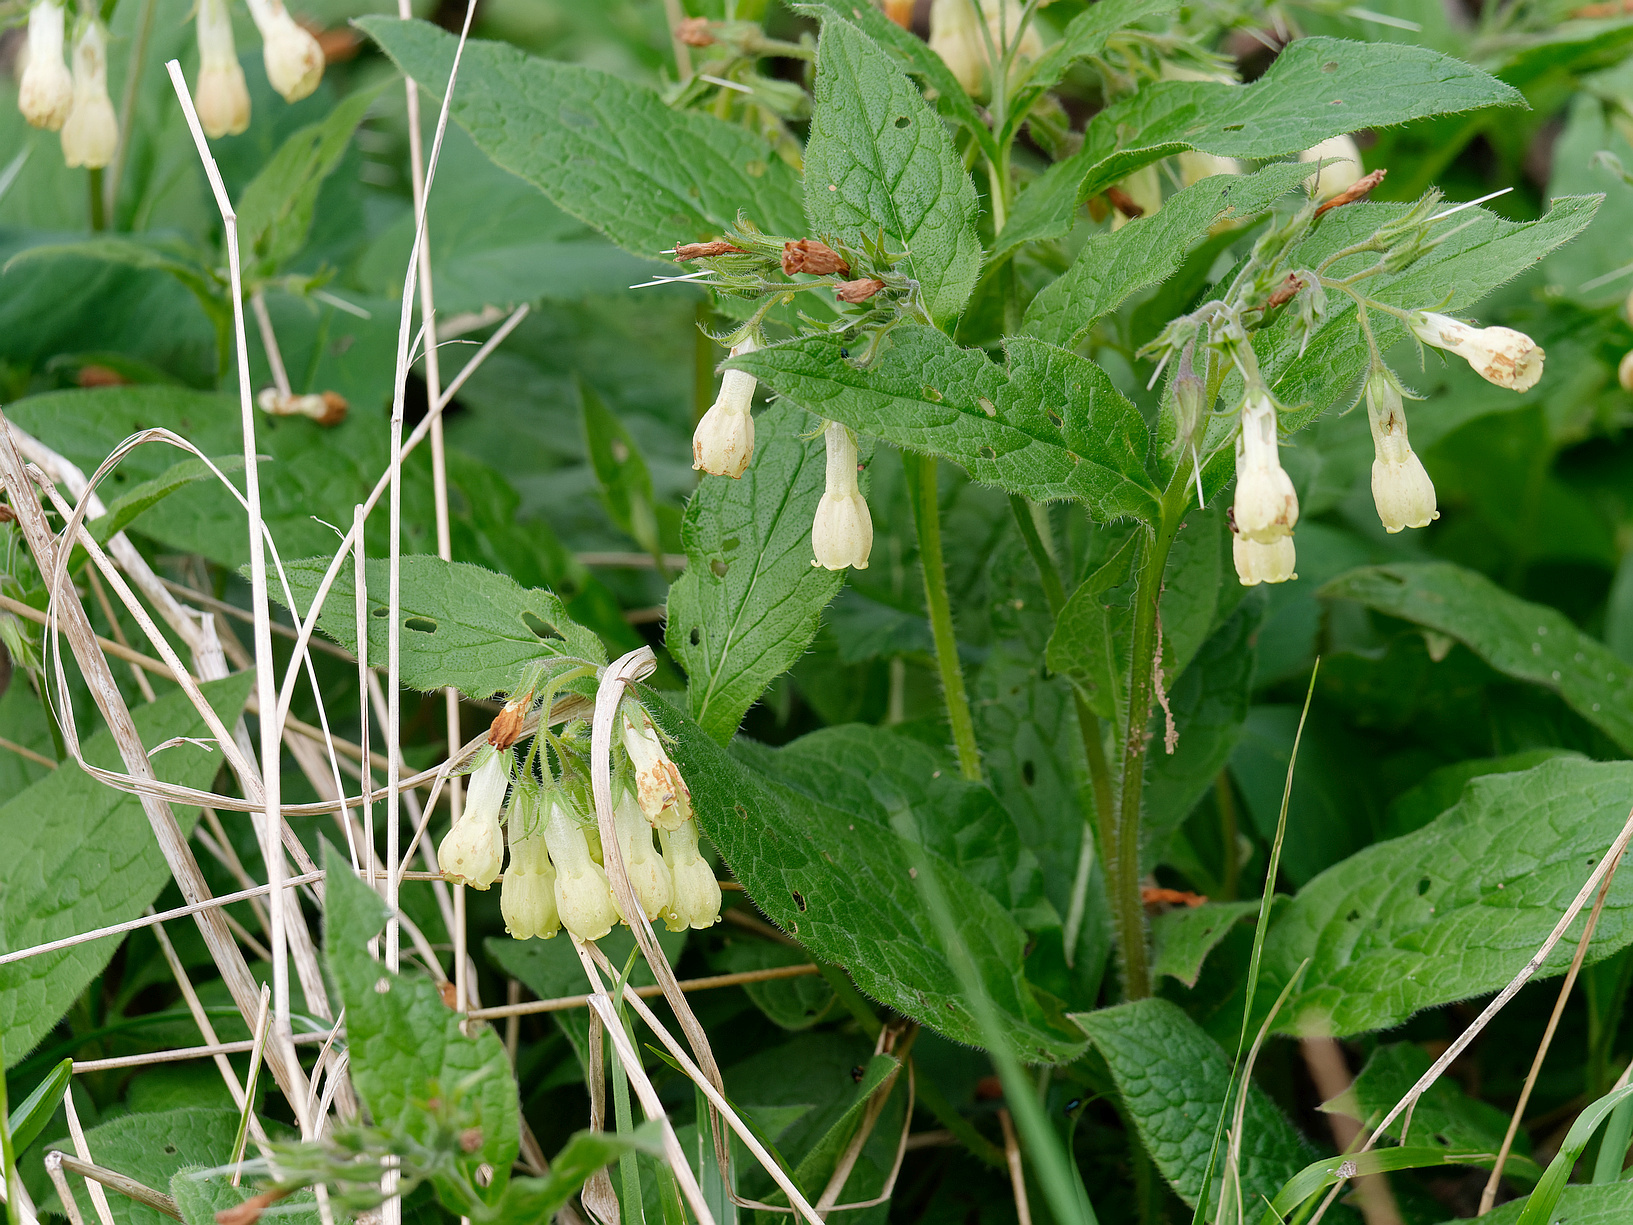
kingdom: Plantae
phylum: Tracheophyta
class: Magnoliopsida
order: Boraginales
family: Boraginaceae
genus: Symphytum
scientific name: Symphytum tuberosum
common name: Tuberous comfrey
